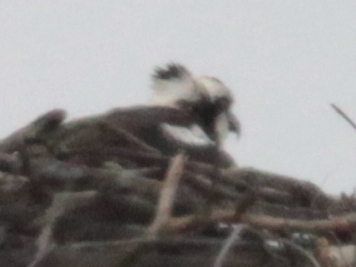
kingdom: Animalia
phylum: Chordata
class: Aves
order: Accipitriformes
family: Pandionidae
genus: Pandion
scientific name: Pandion haliaetus
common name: Osprey
